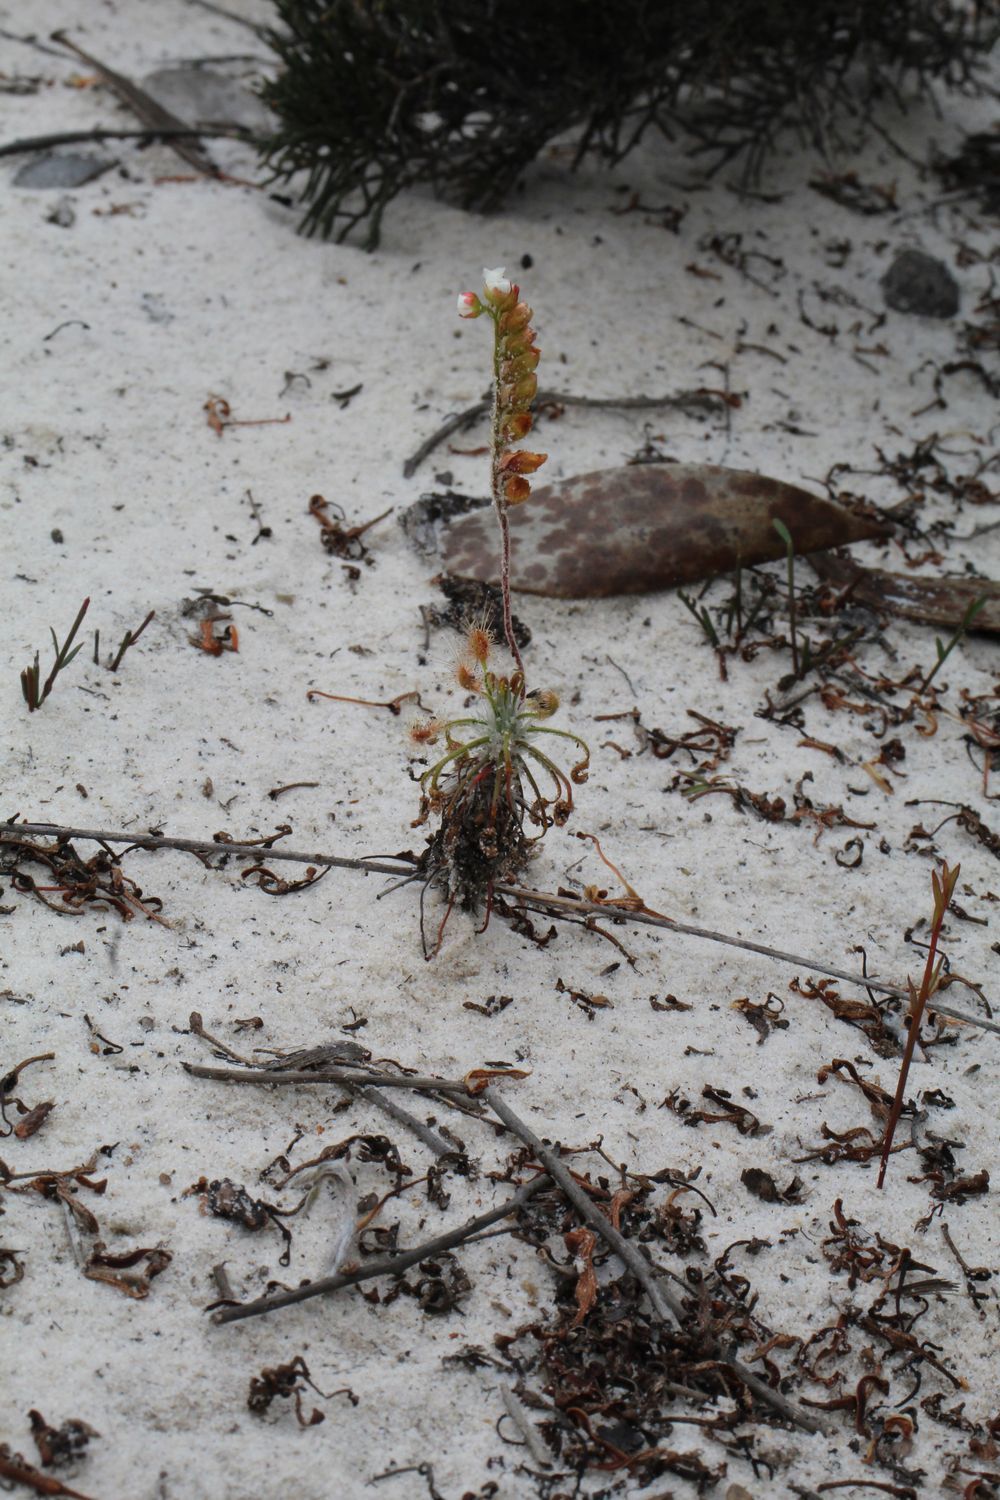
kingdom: Plantae
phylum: Tracheophyta
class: Magnoliopsida
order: Caryophyllales
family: Droseraceae
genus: Drosera
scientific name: Drosera scorpioides
